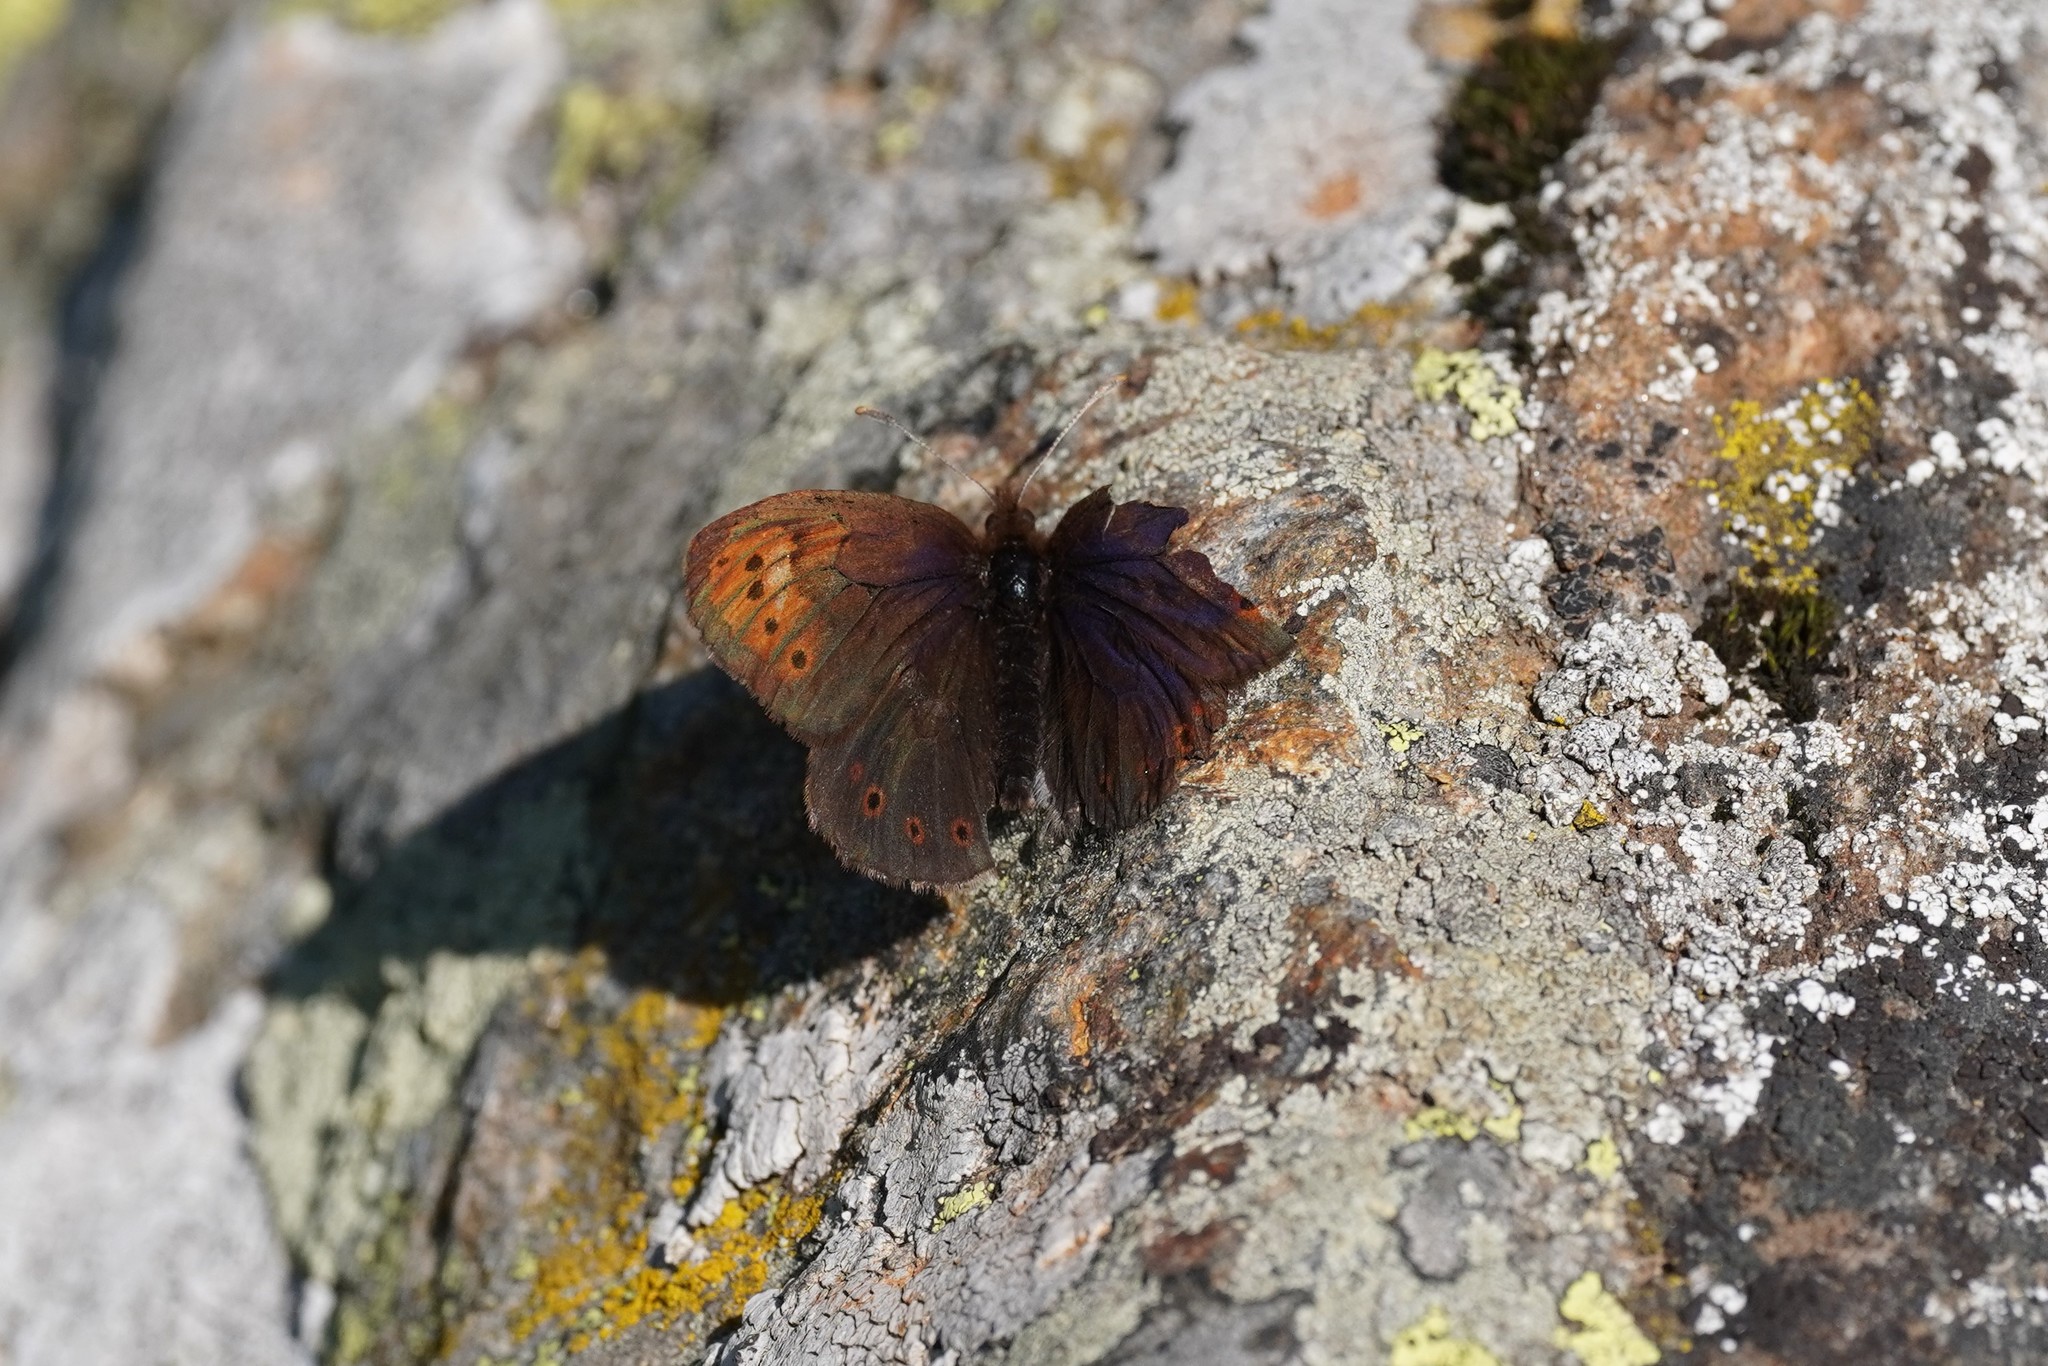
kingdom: Animalia
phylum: Arthropoda
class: Insecta
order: Lepidoptera
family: Nymphalidae
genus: Erebia
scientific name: Erebia pandrose
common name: Dewy ringlet
